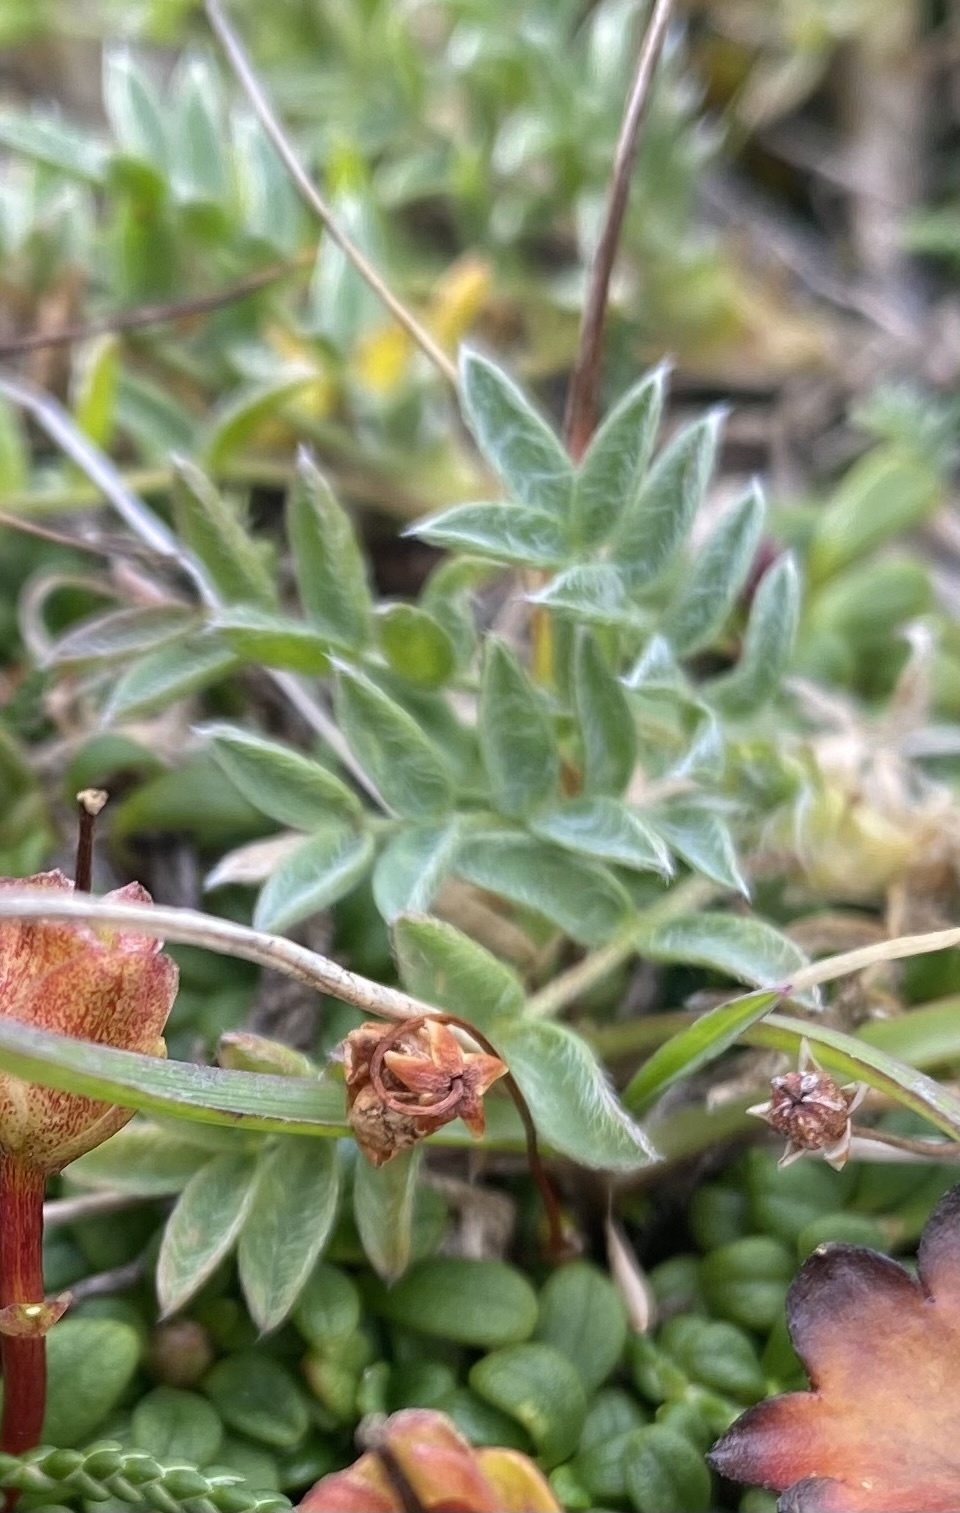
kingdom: Plantae
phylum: Tracheophyta
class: Magnoliopsida
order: Fabales
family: Fabaceae
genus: Oxytropis
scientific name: Oxytropis nigrescens
